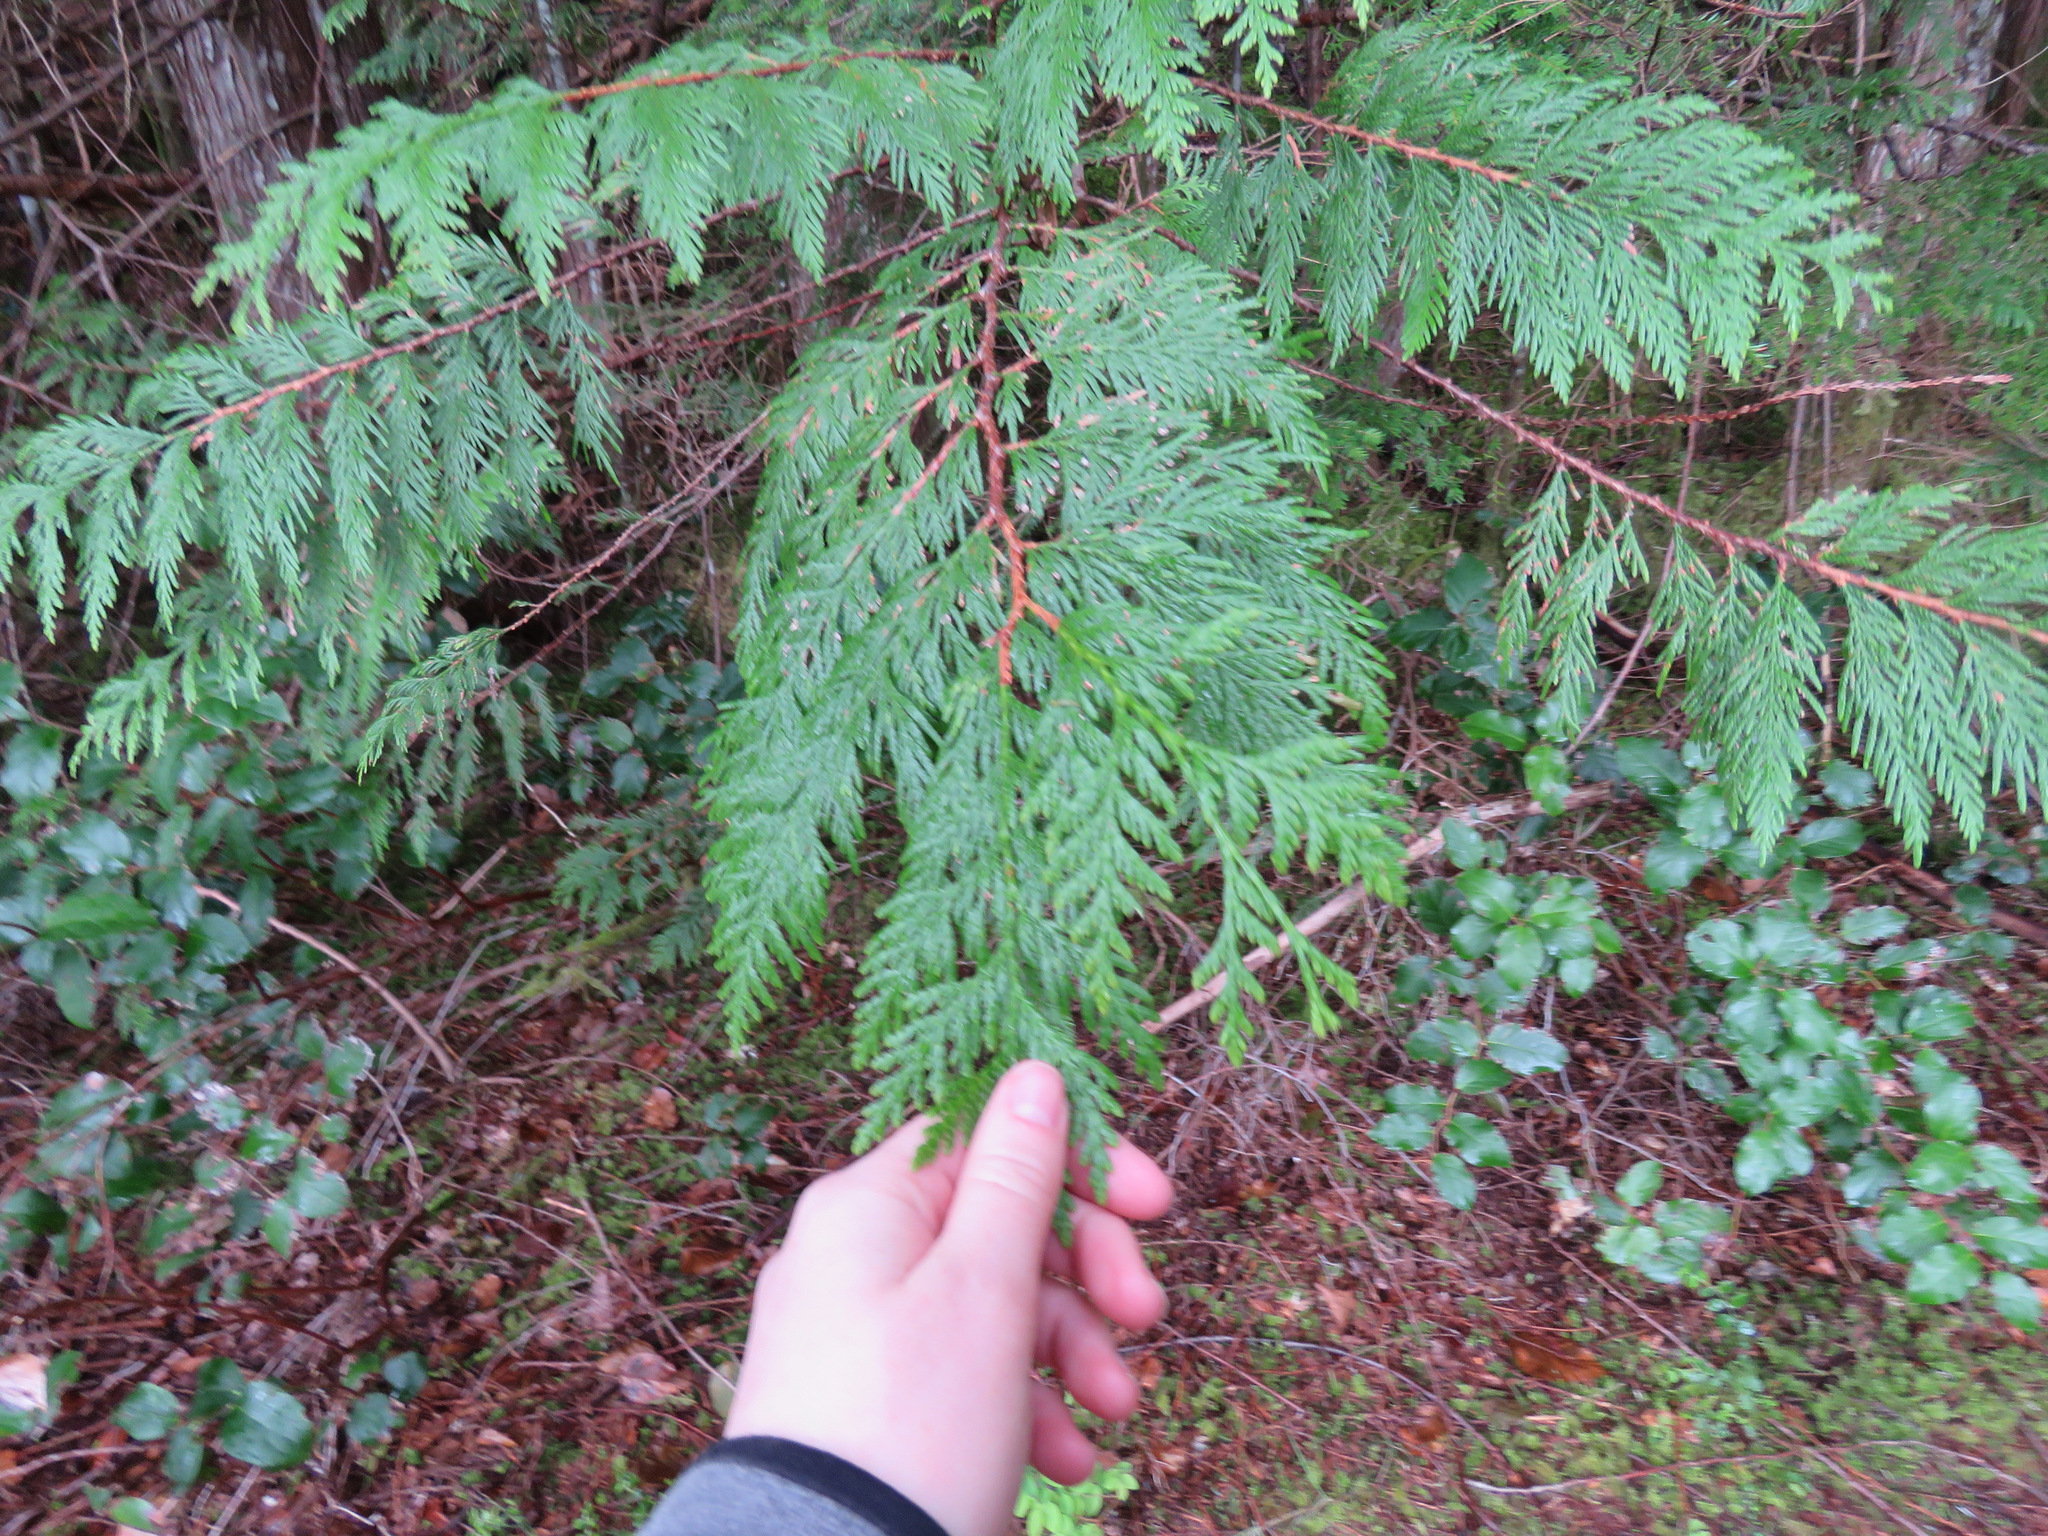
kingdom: Plantae
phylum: Tracheophyta
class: Pinopsida
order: Pinales
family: Cupressaceae
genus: Thuja
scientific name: Thuja plicata
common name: Western red-cedar
